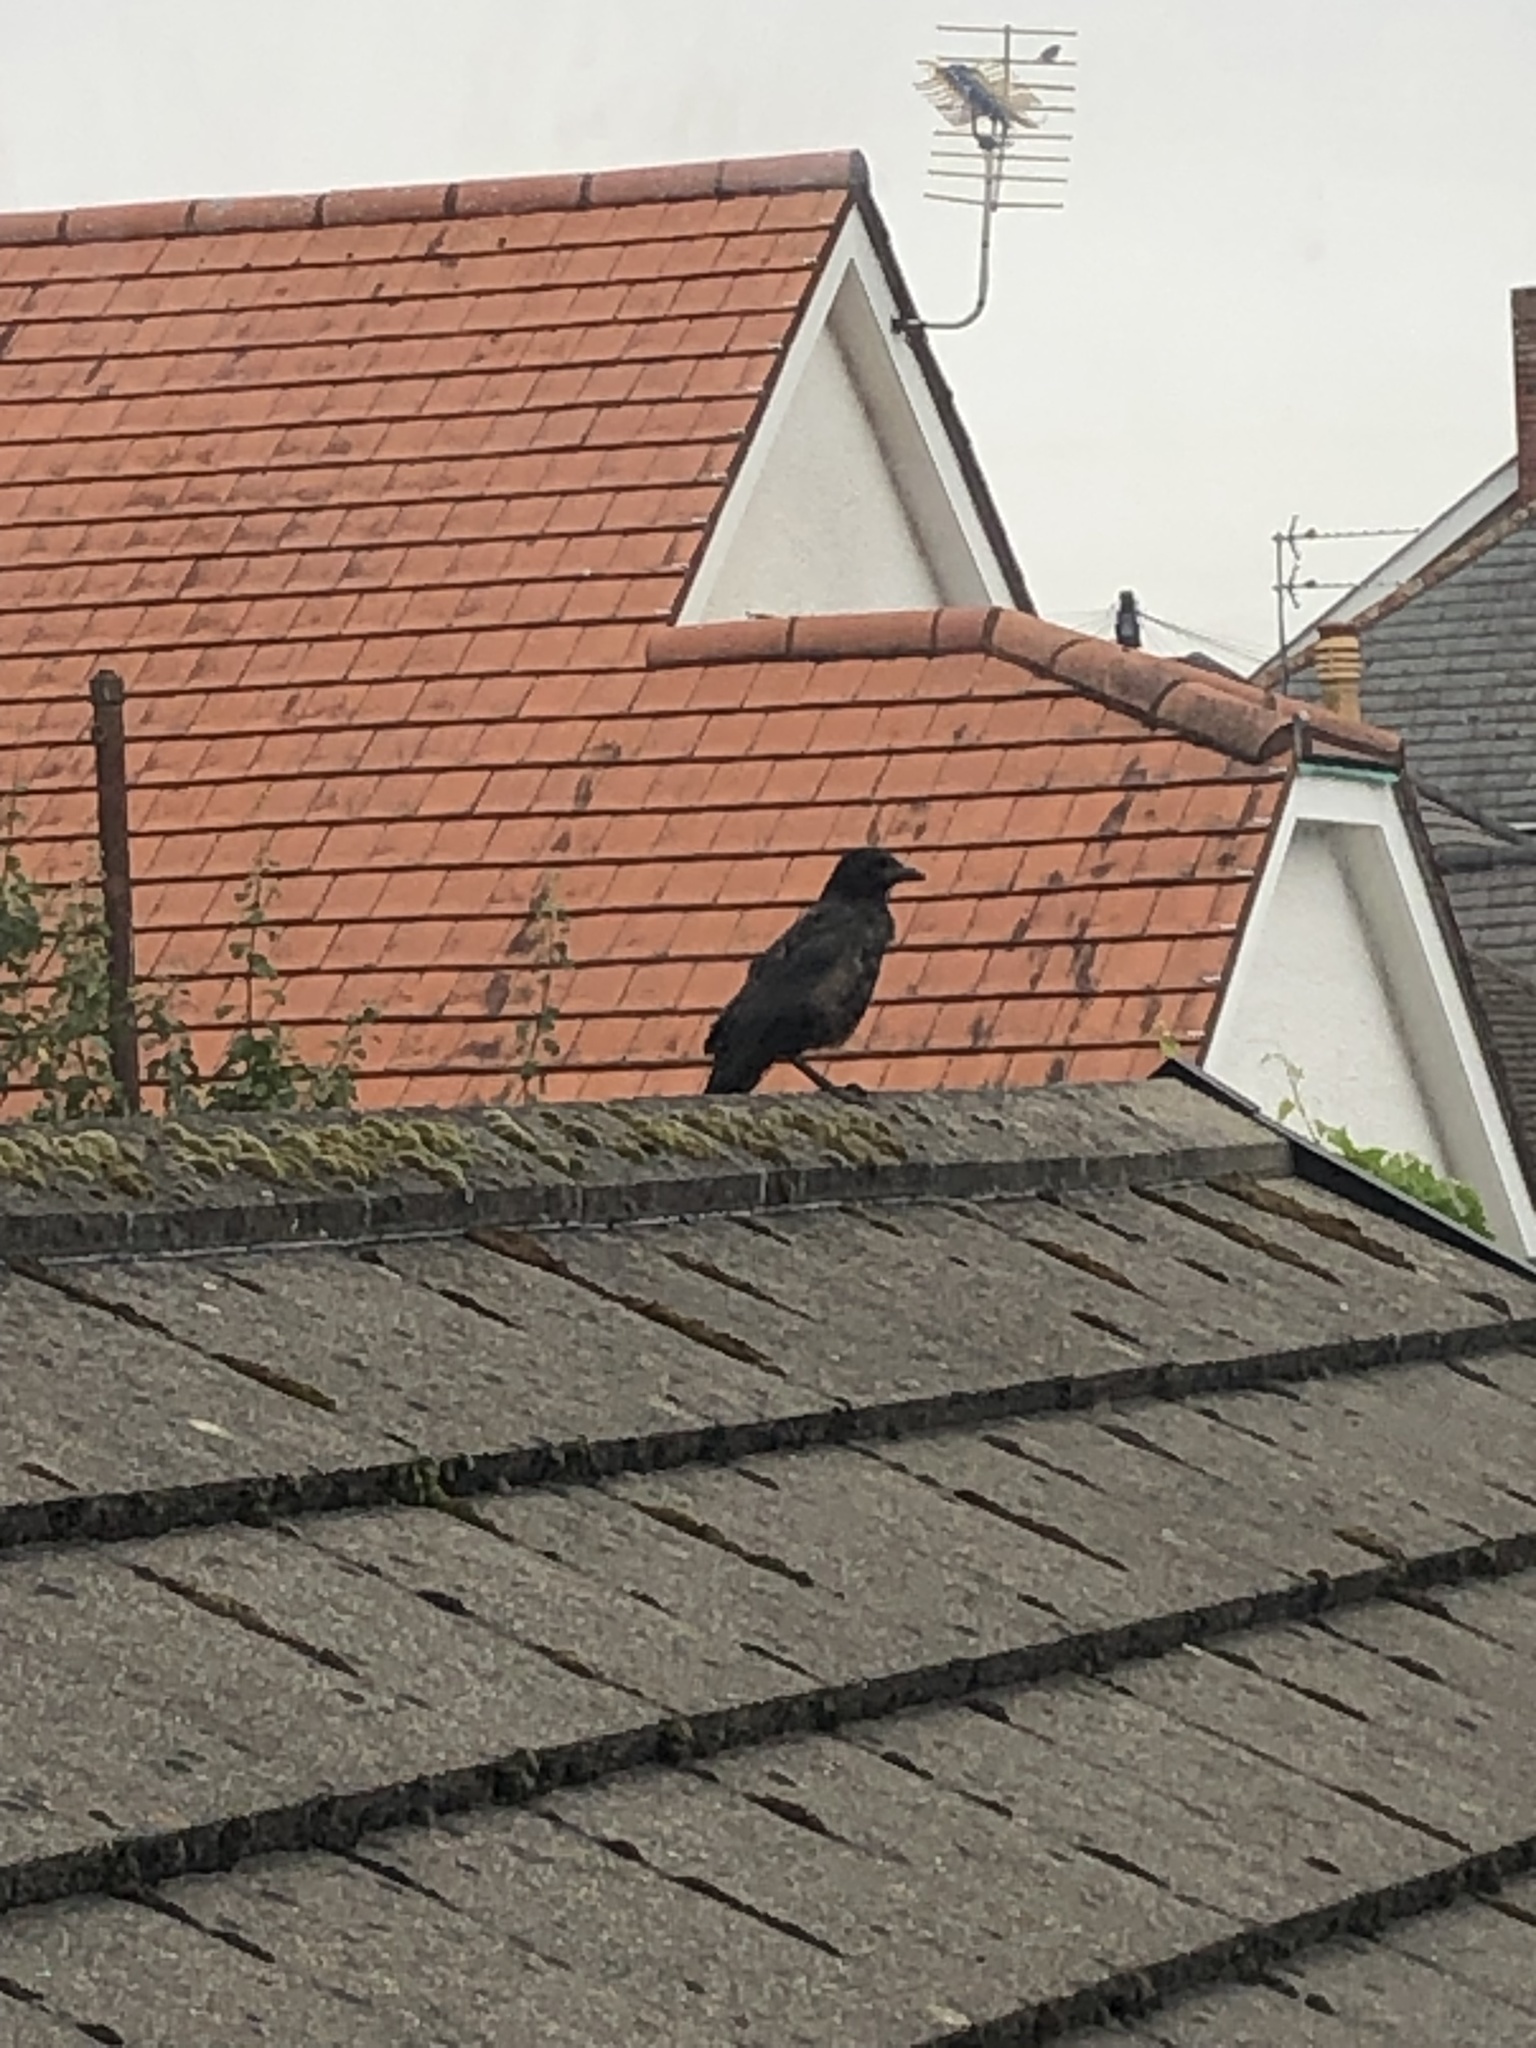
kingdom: Animalia
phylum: Chordata
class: Aves
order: Passeriformes
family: Corvidae
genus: Corvus
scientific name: Corvus corone
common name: Carrion crow
